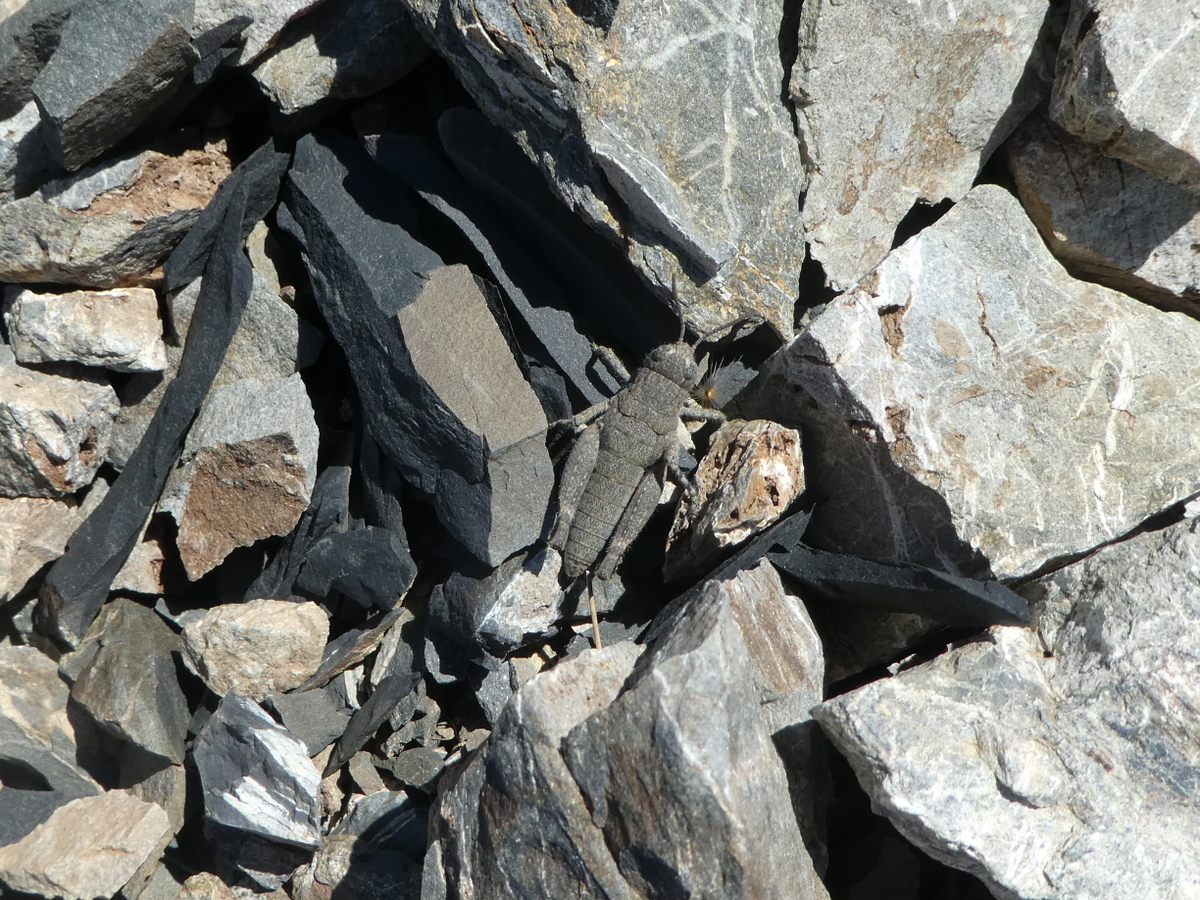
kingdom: Animalia
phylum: Arthropoda
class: Insecta
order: Orthoptera
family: Acrididae
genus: Sigaus
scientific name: Sigaus
